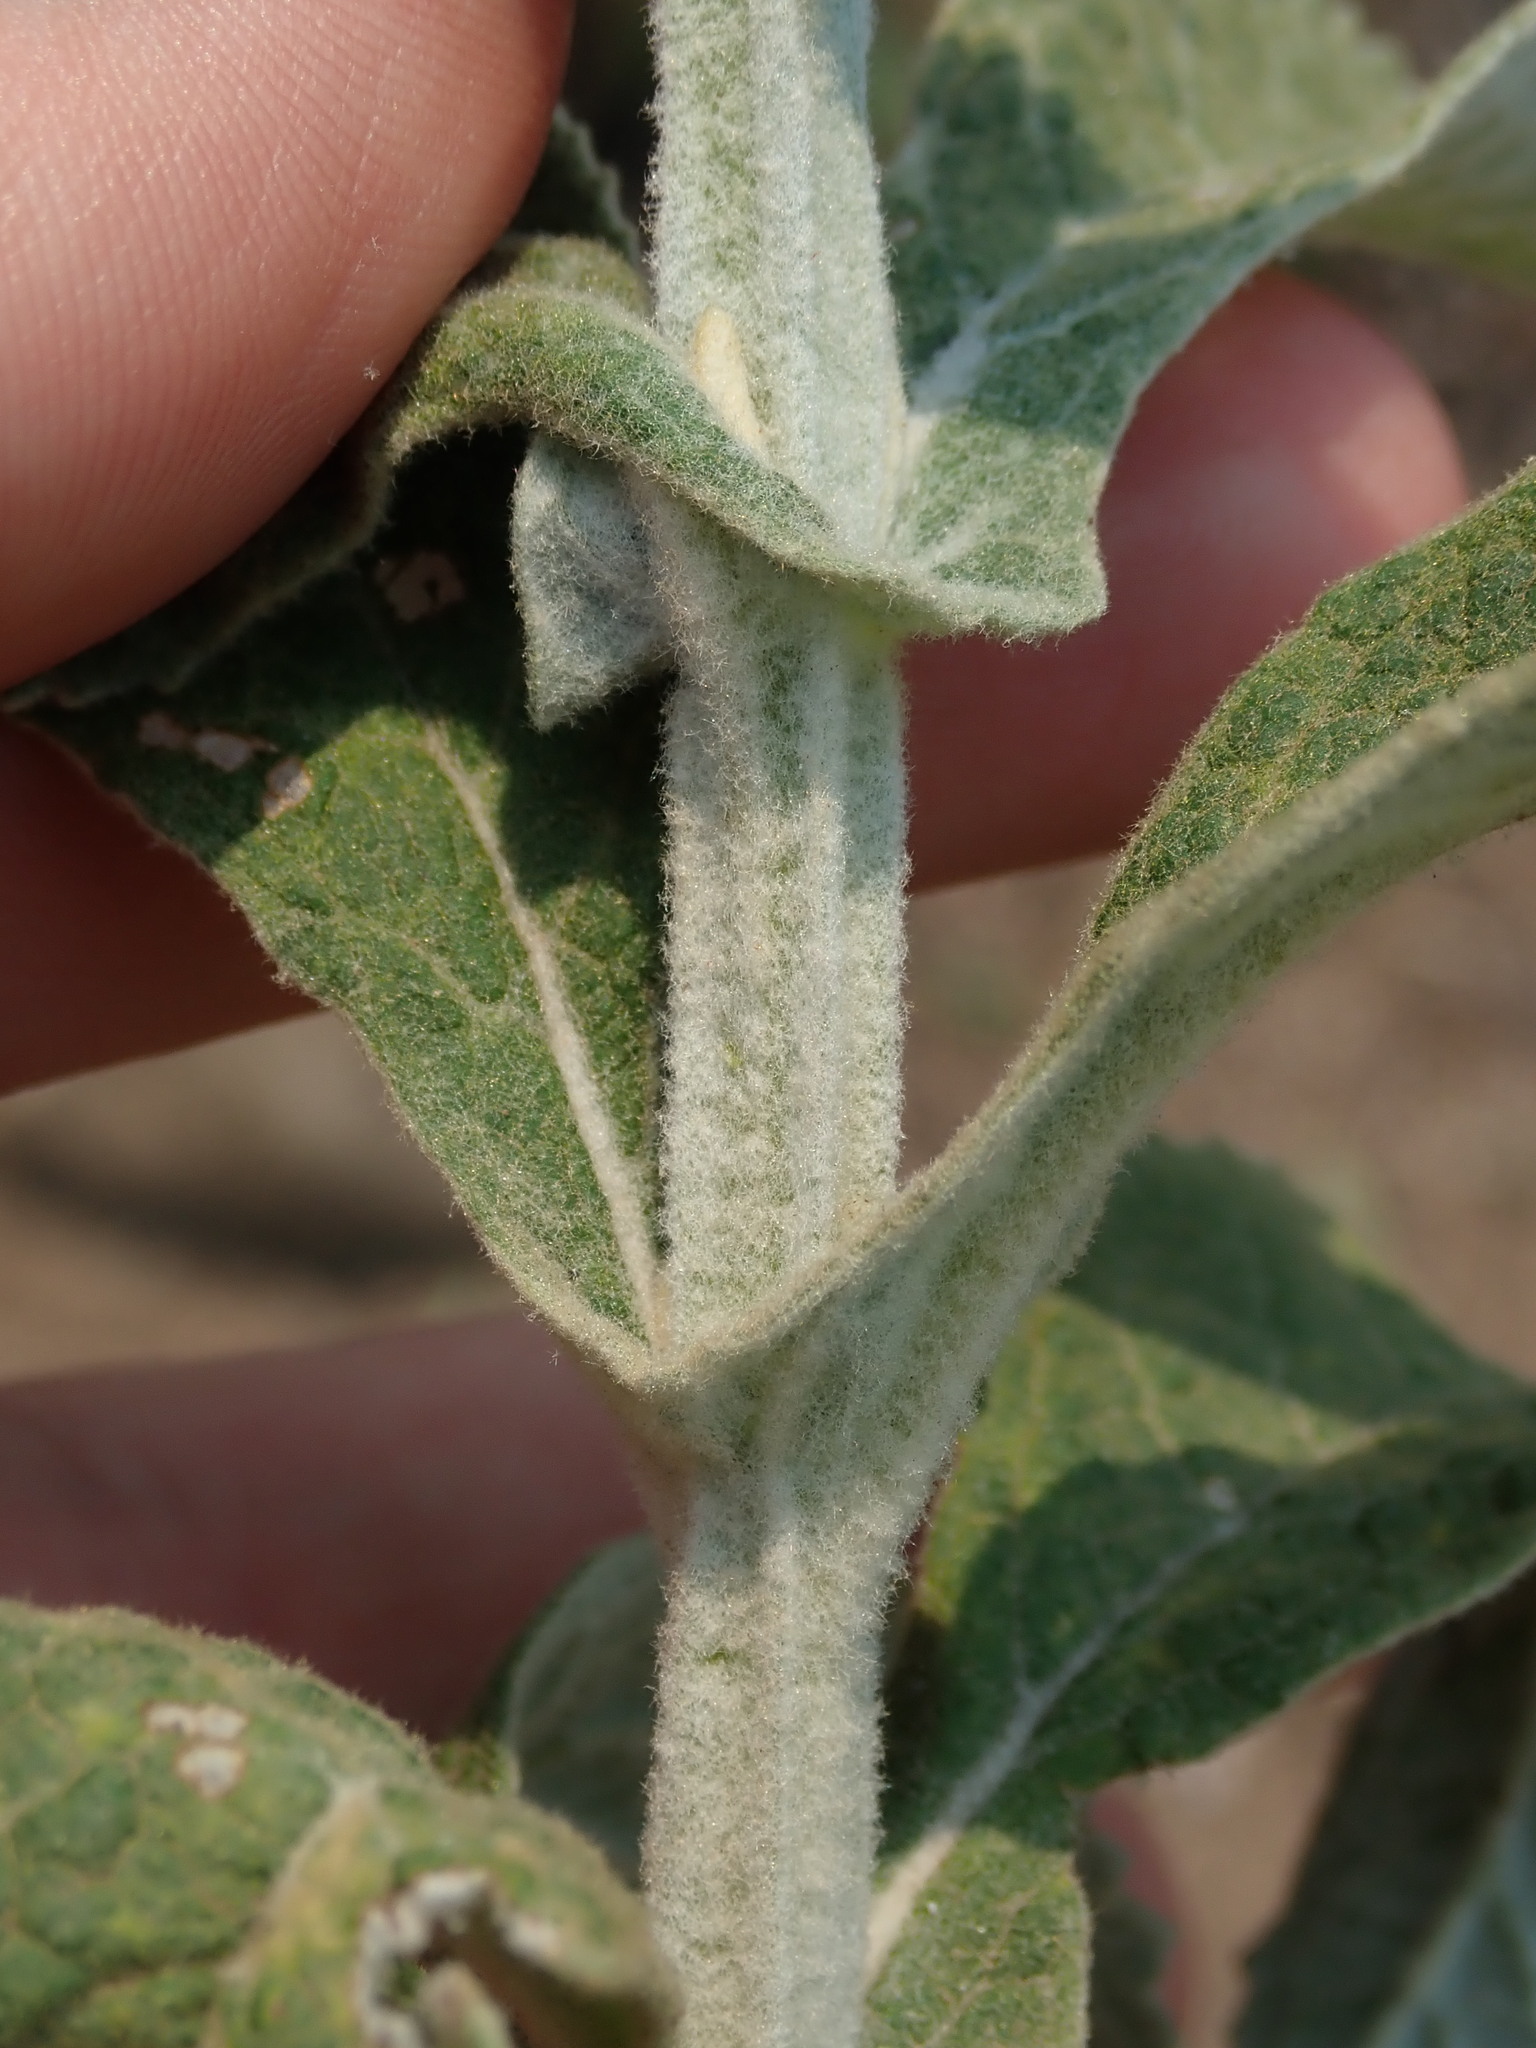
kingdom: Plantae
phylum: Tracheophyta
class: Magnoliopsida
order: Lamiales
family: Scrophulariaceae
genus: Buddleja
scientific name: Buddleja stachyoides
